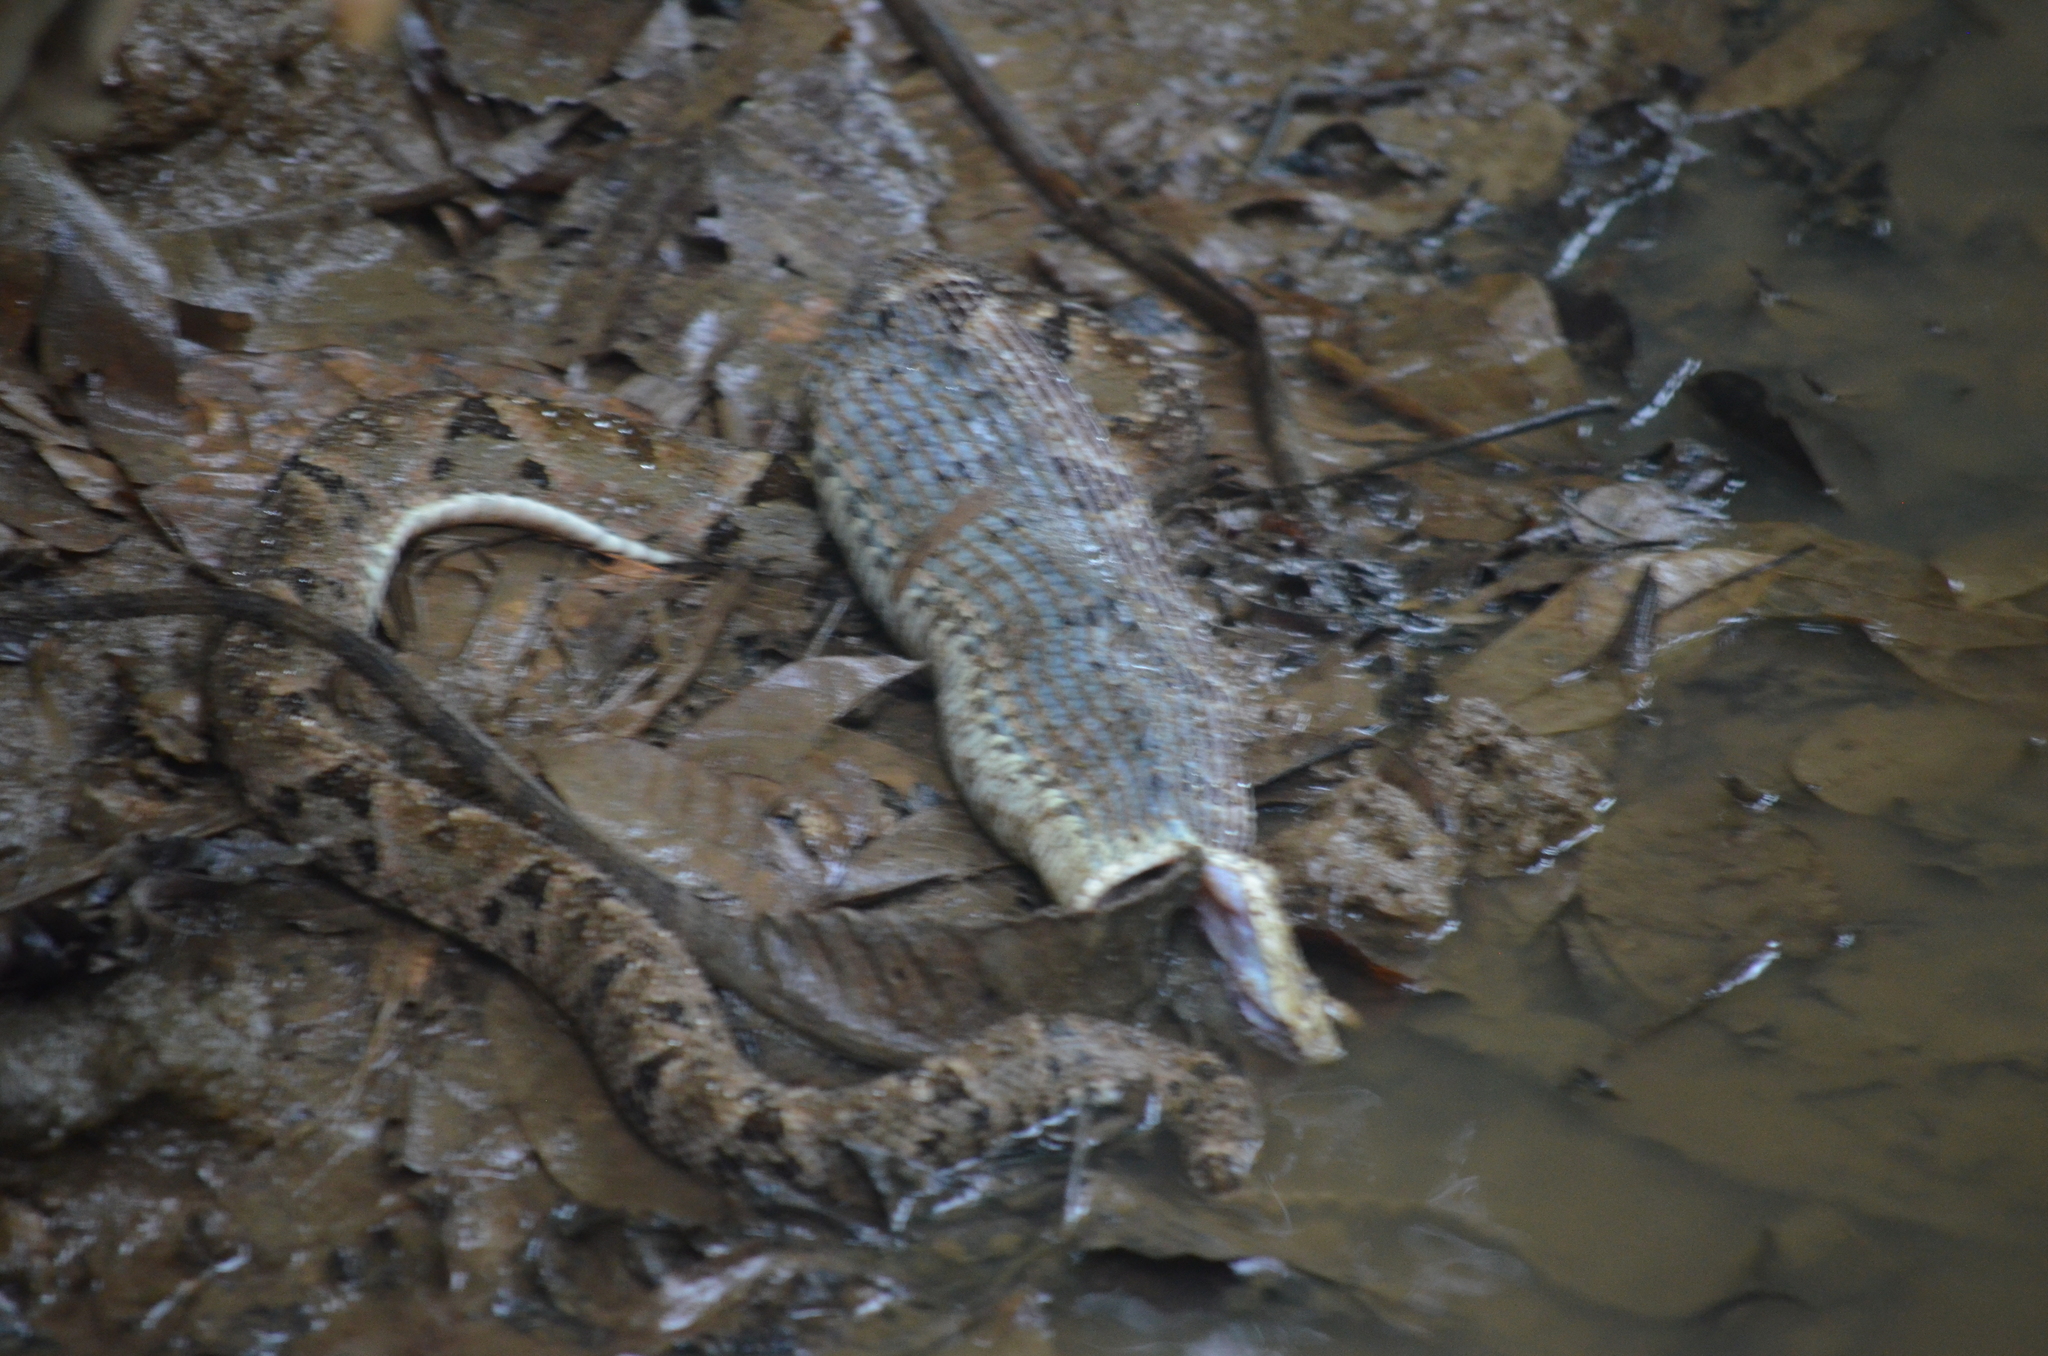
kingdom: Animalia
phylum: Chordata
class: Squamata
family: Viperidae
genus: Bothrops
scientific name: Bothrops asper
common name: Terciopelo
